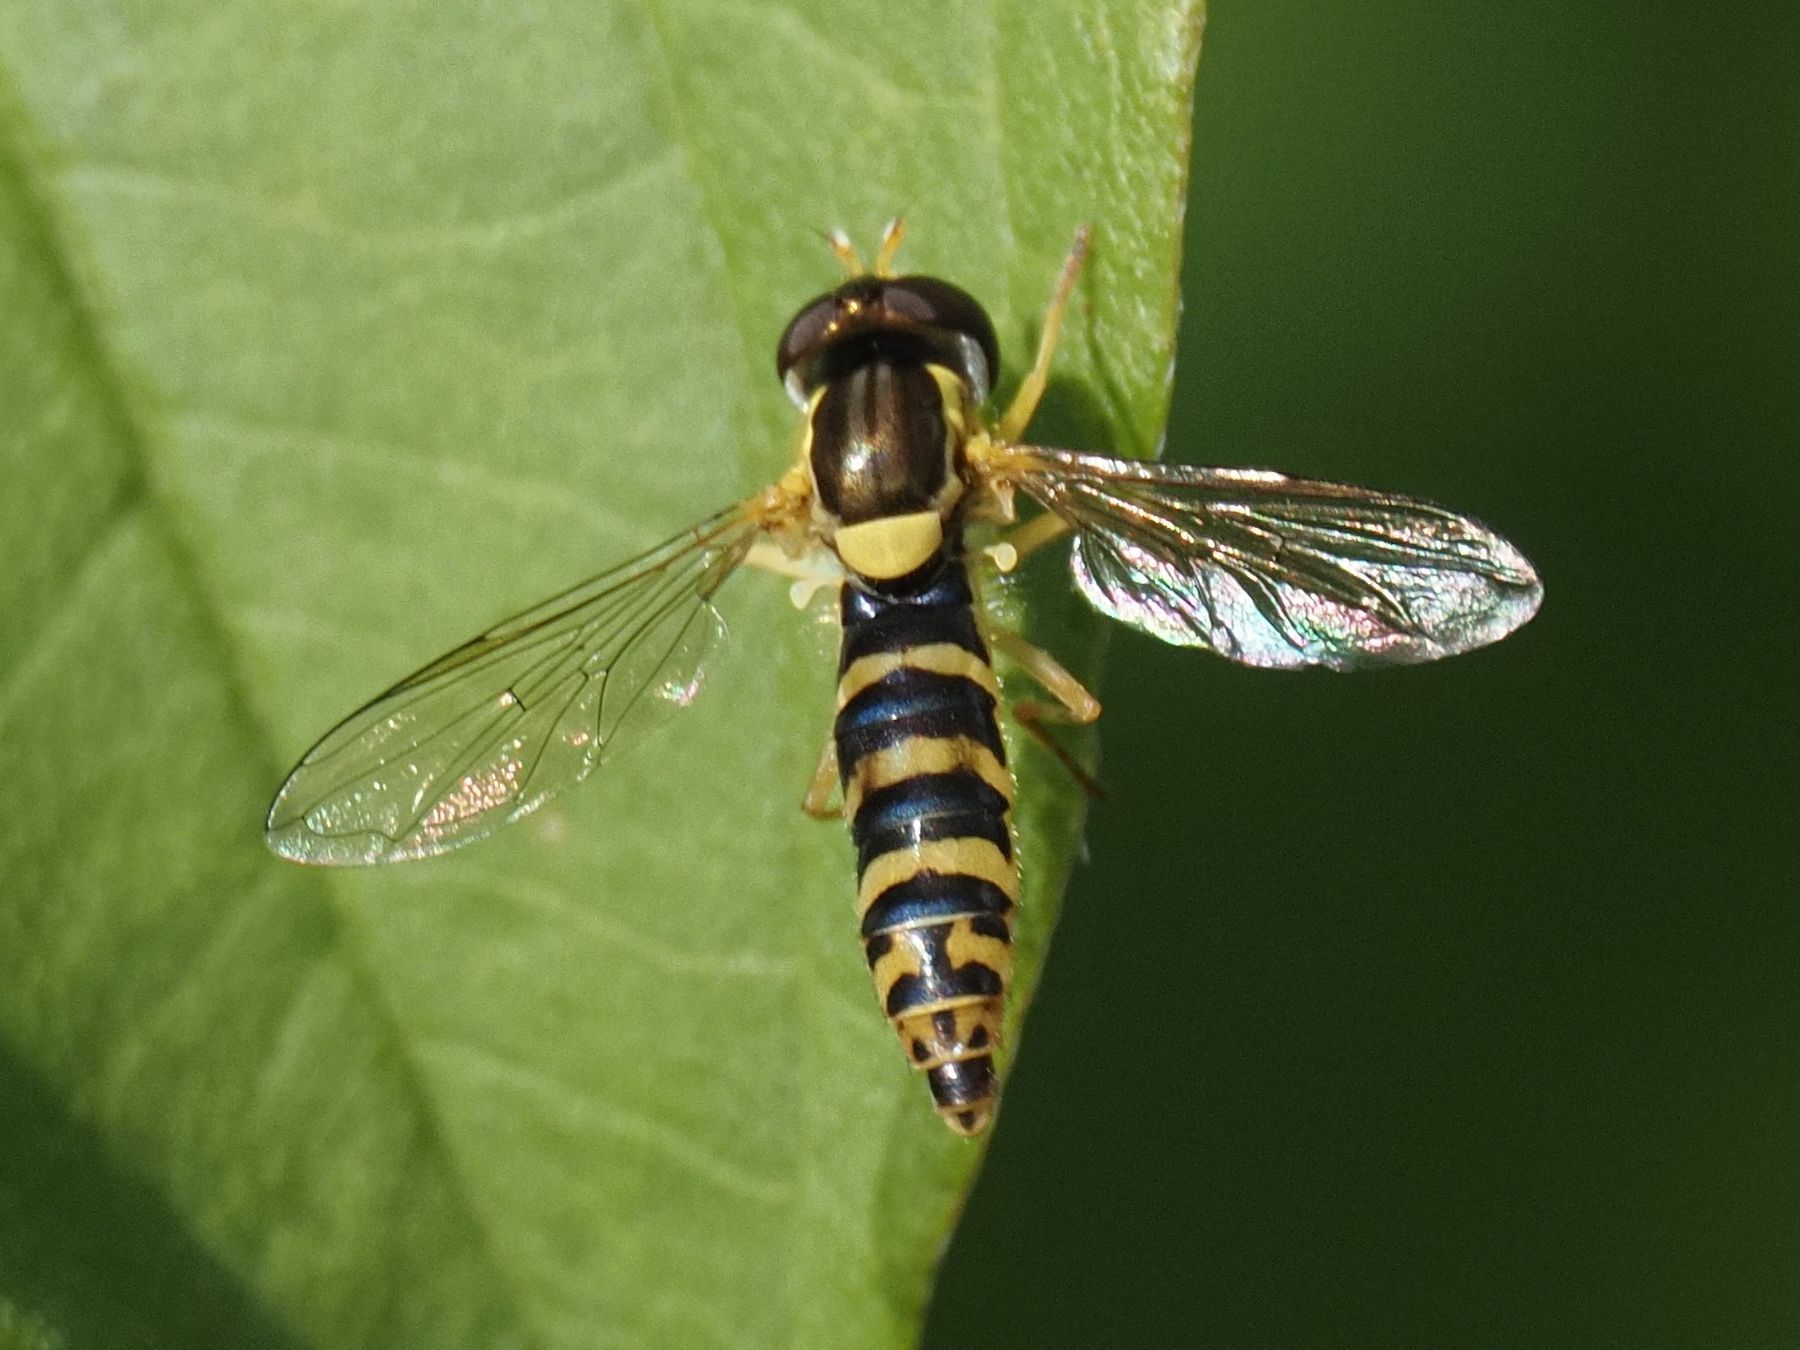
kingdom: Animalia
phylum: Arthropoda
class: Insecta
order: Diptera
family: Syrphidae
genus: Sphaerophoria
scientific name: Sphaerophoria scripta
